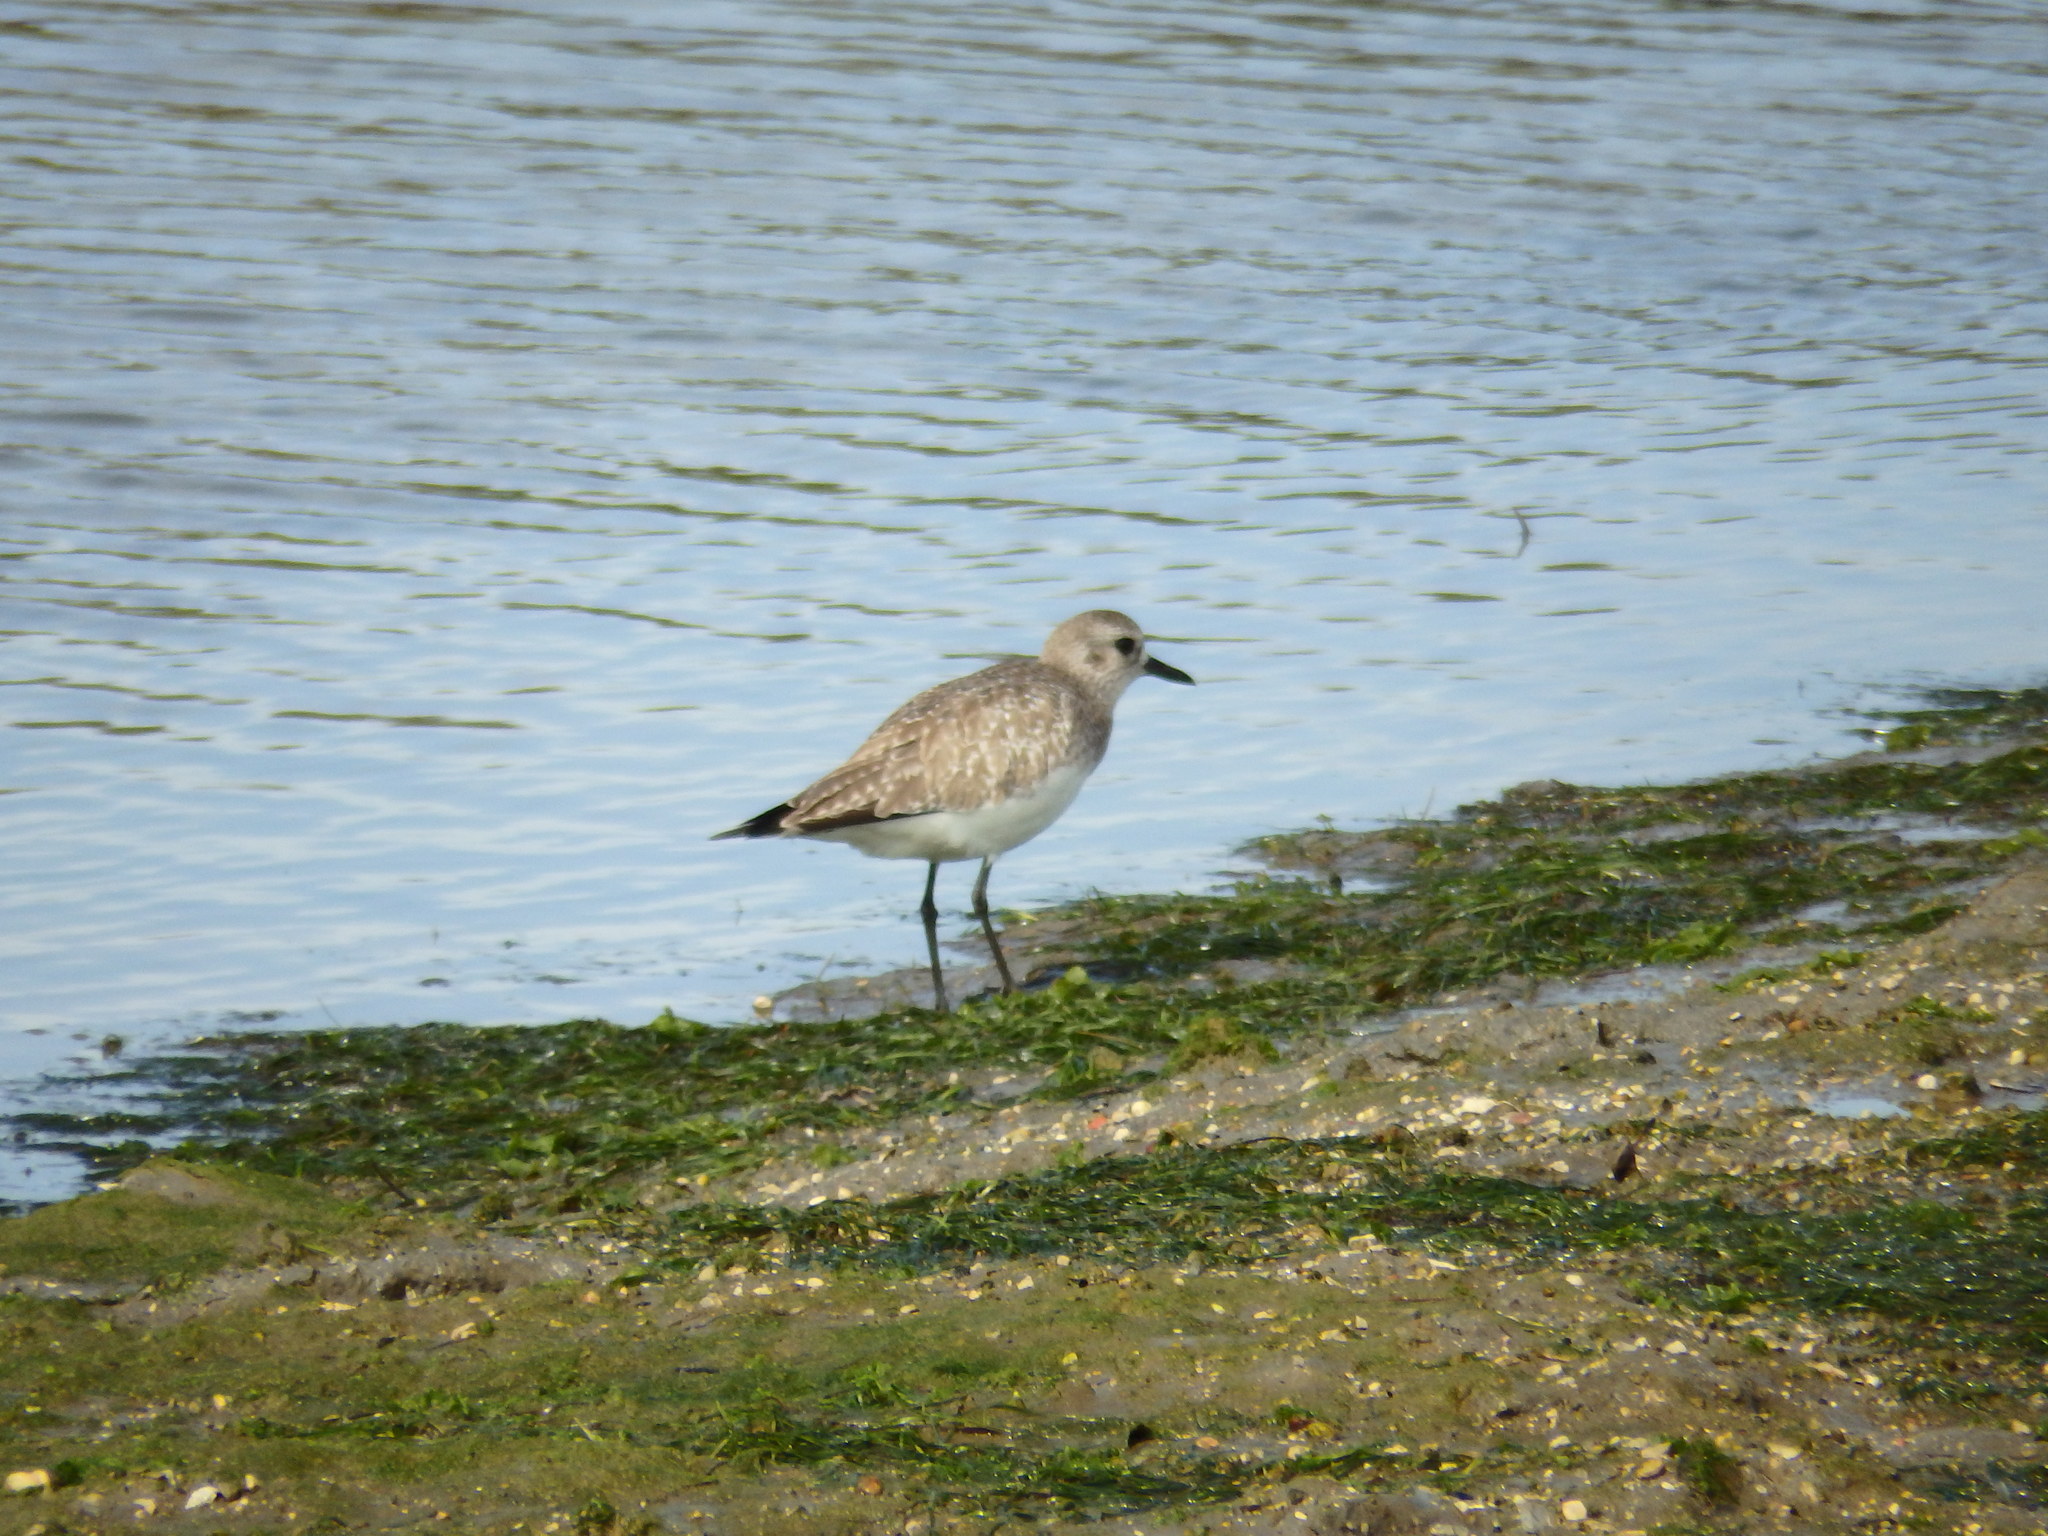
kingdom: Animalia
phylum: Chordata
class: Aves
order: Charadriiformes
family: Charadriidae
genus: Pluvialis
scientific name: Pluvialis squatarola
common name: Grey plover
